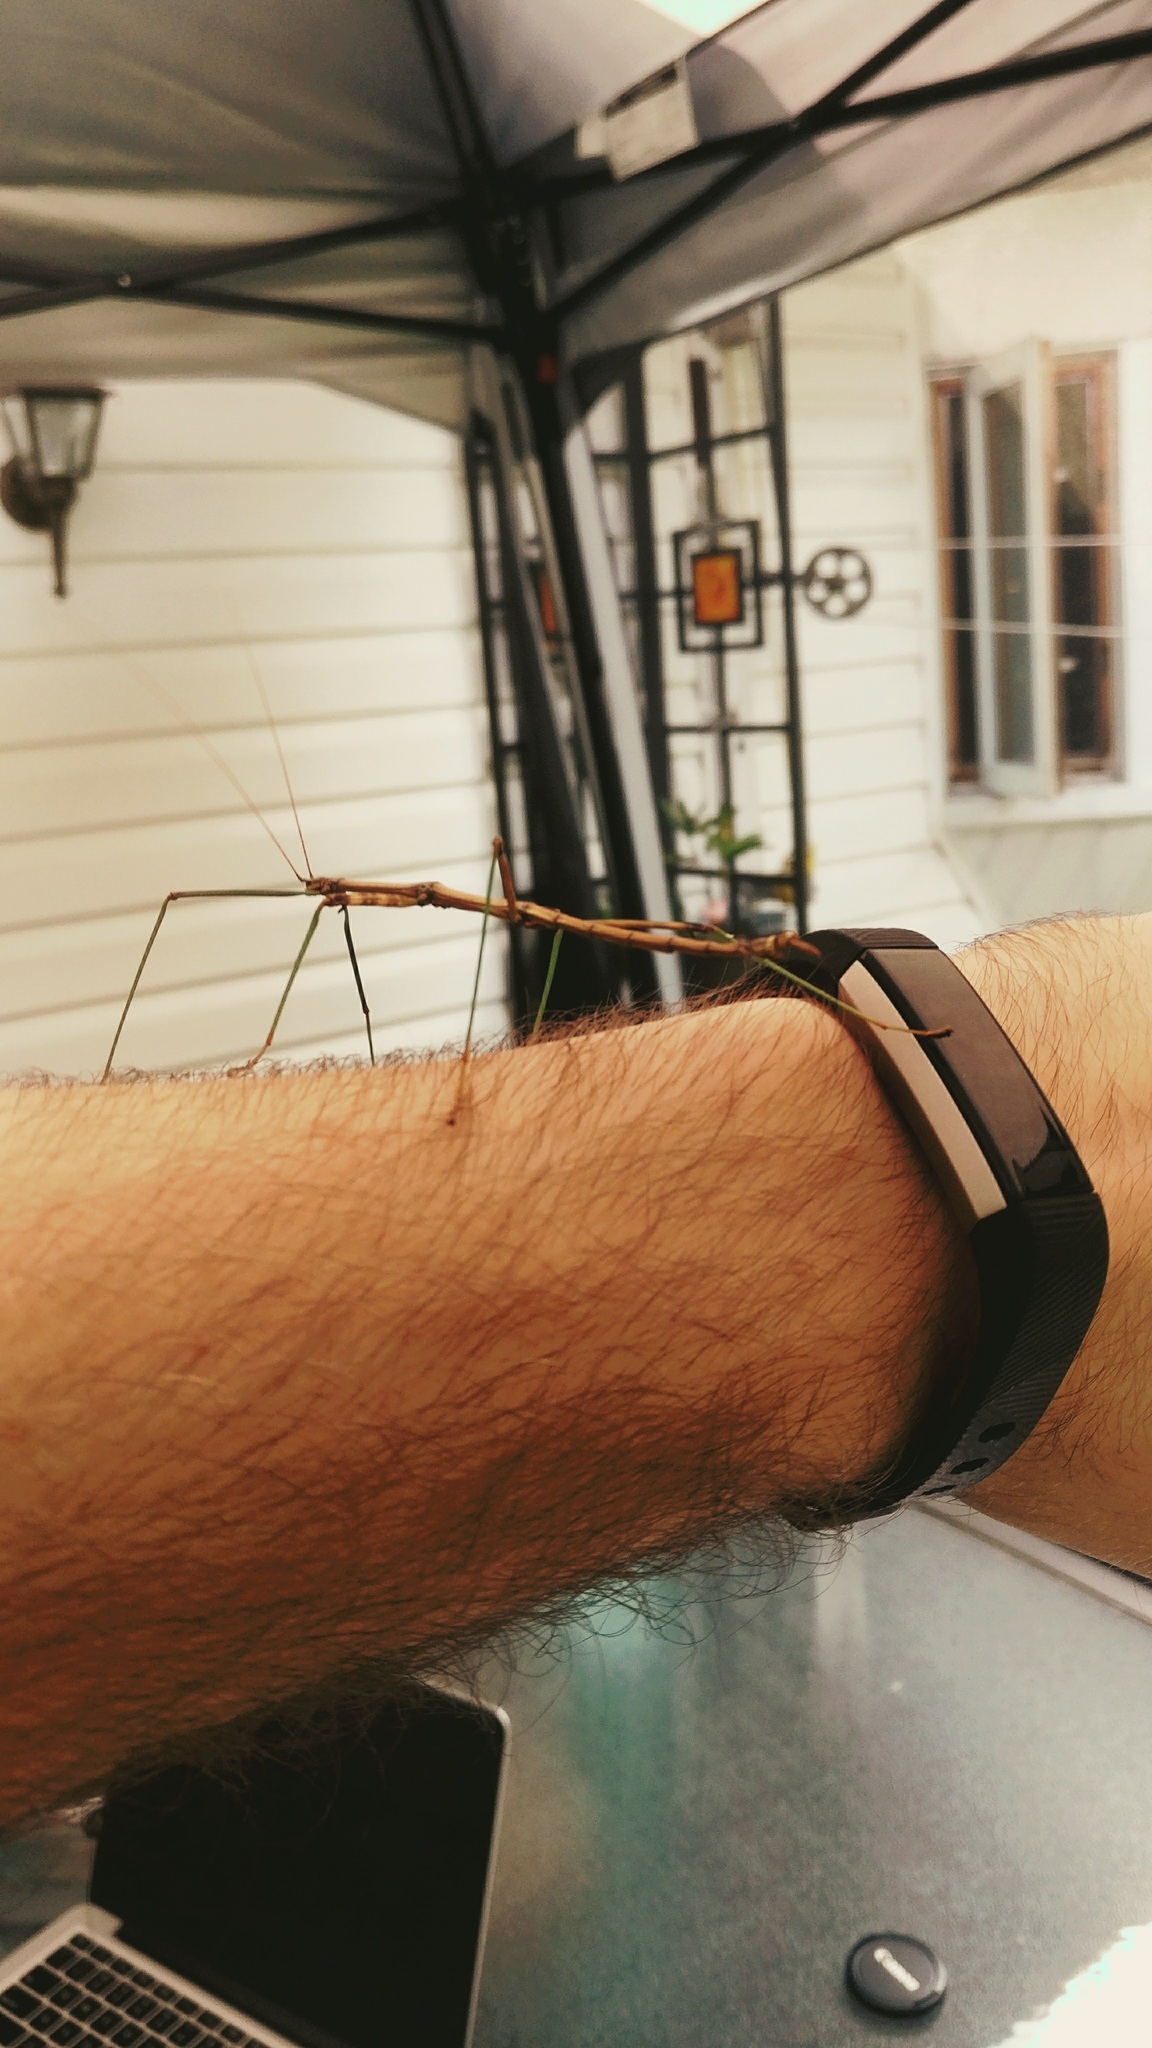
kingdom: Animalia
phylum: Arthropoda
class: Insecta
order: Phasmida
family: Diapheromeridae
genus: Diapheromera
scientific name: Diapheromera femorata
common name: Common american walkingstick
